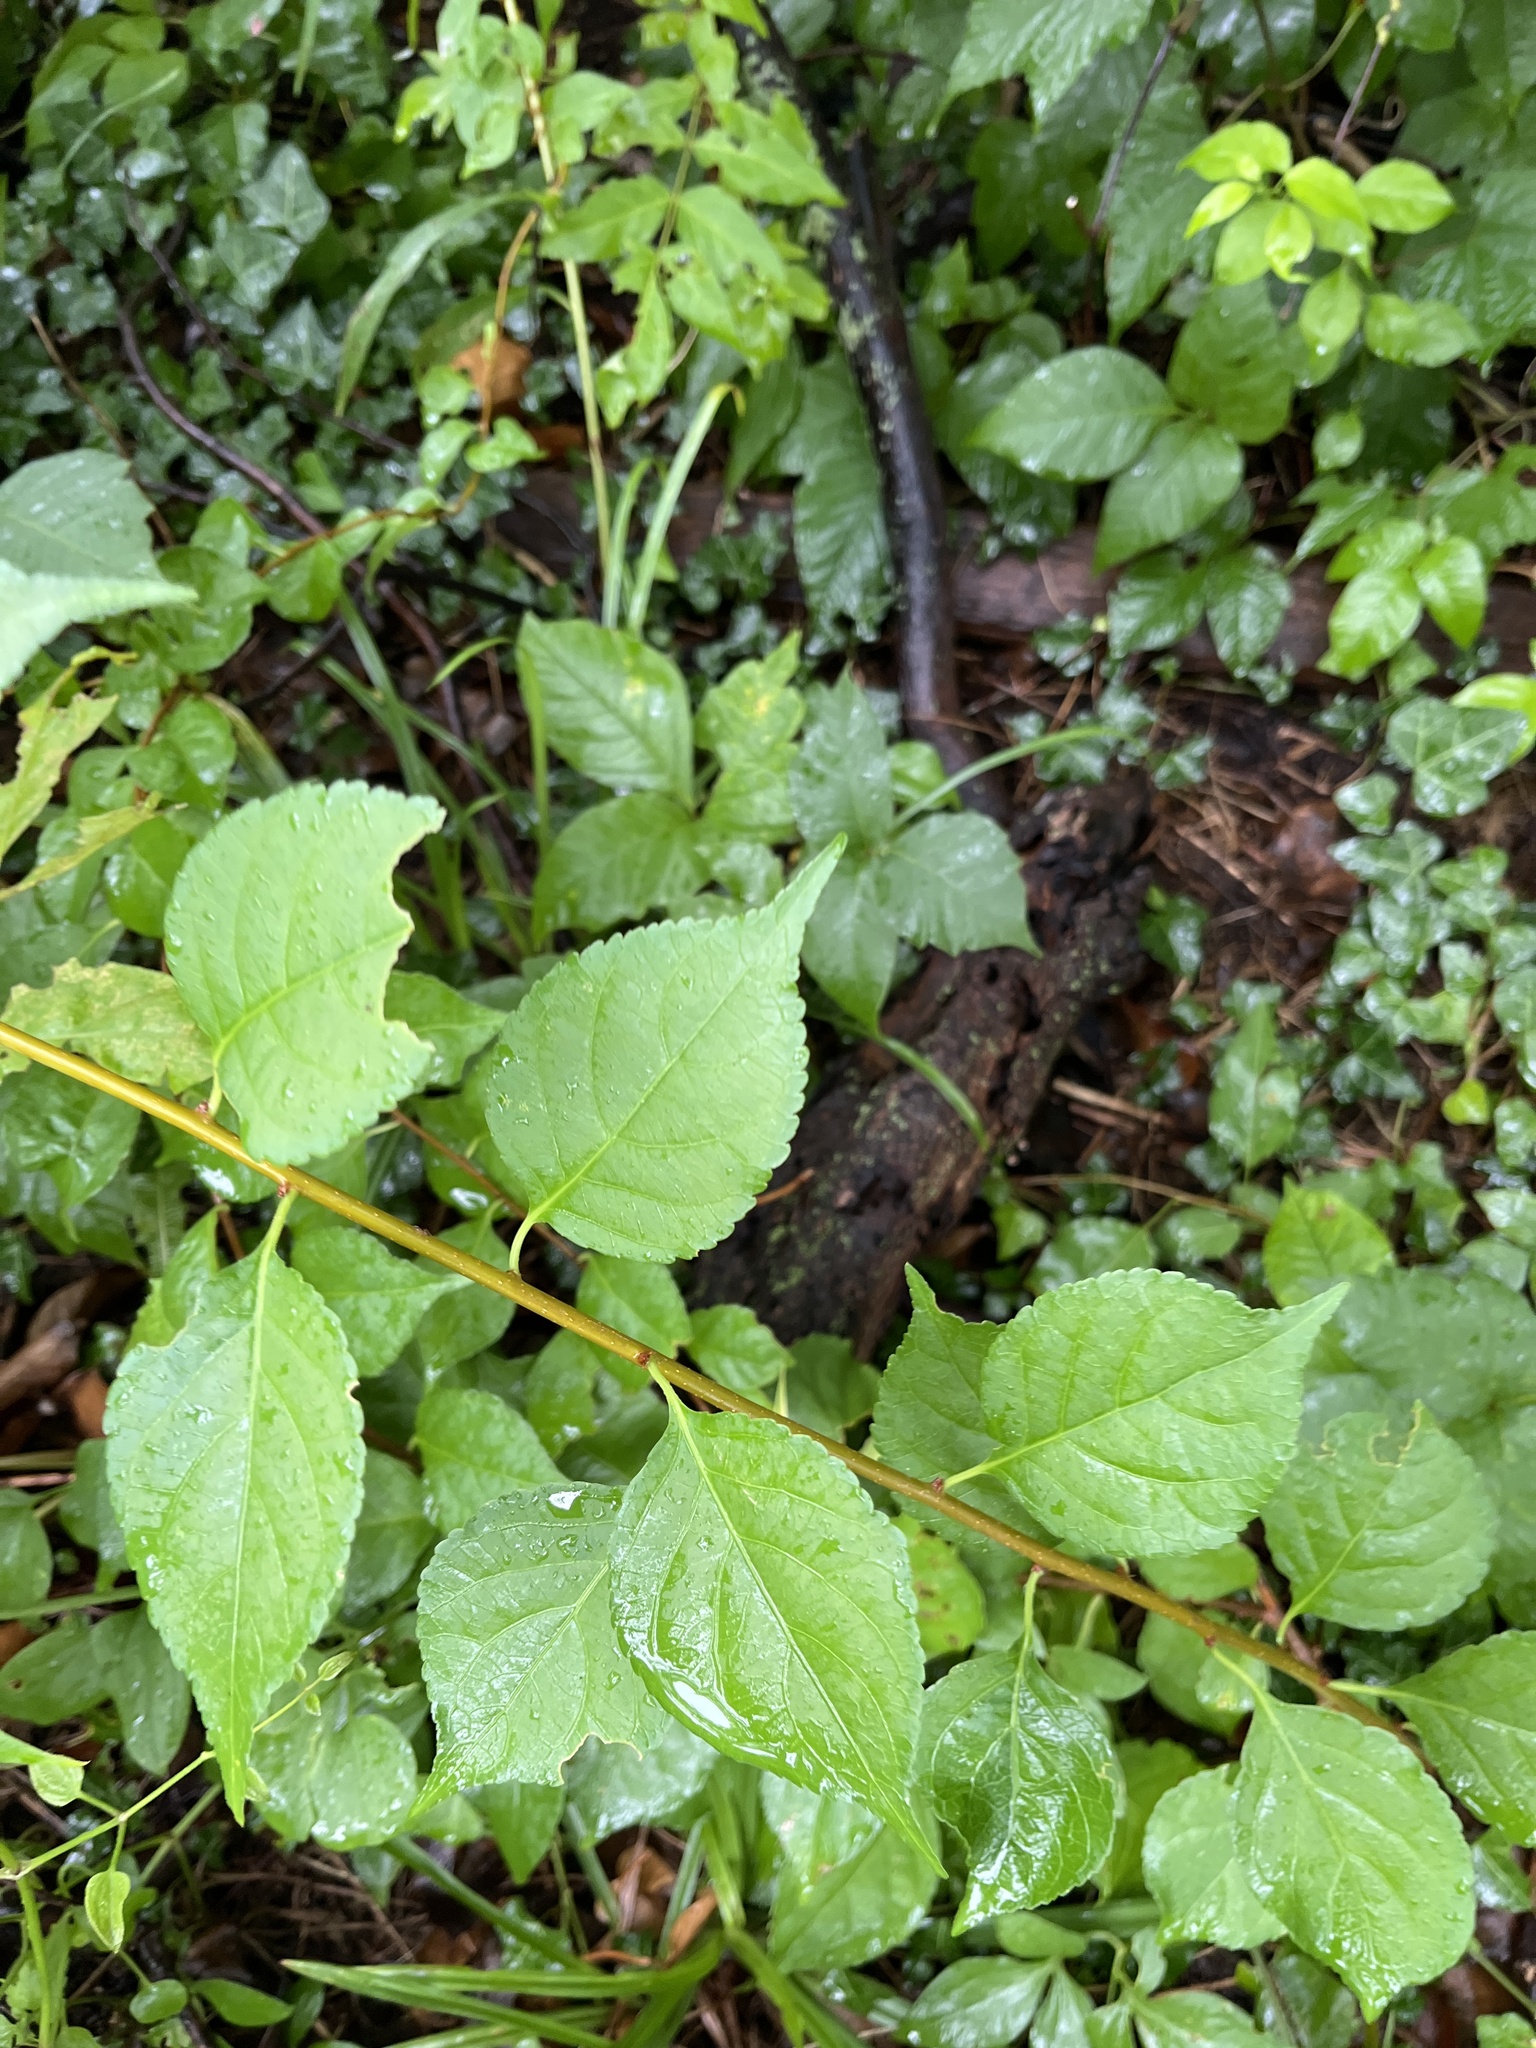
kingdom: Plantae
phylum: Tracheophyta
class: Magnoliopsida
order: Celastrales
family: Celastraceae
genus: Celastrus
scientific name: Celastrus orbiculatus
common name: Oriental bittersweet
